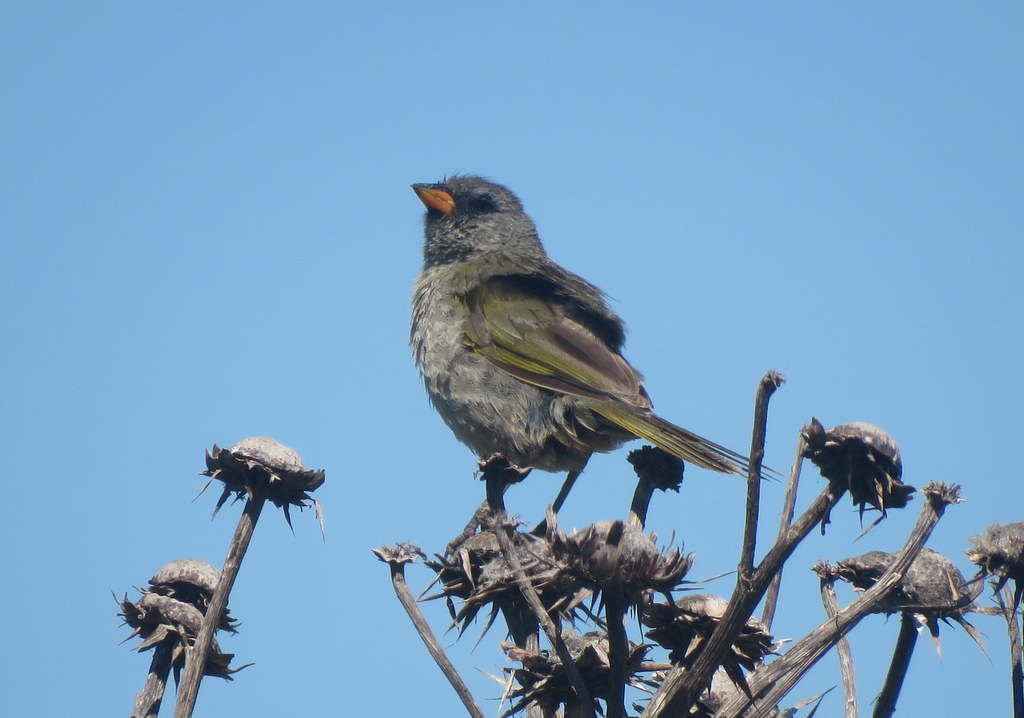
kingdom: Animalia
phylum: Chordata
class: Aves
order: Passeriformes
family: Thraupidae
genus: Embernagra
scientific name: Embernagra platensis
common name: Pampa finch
